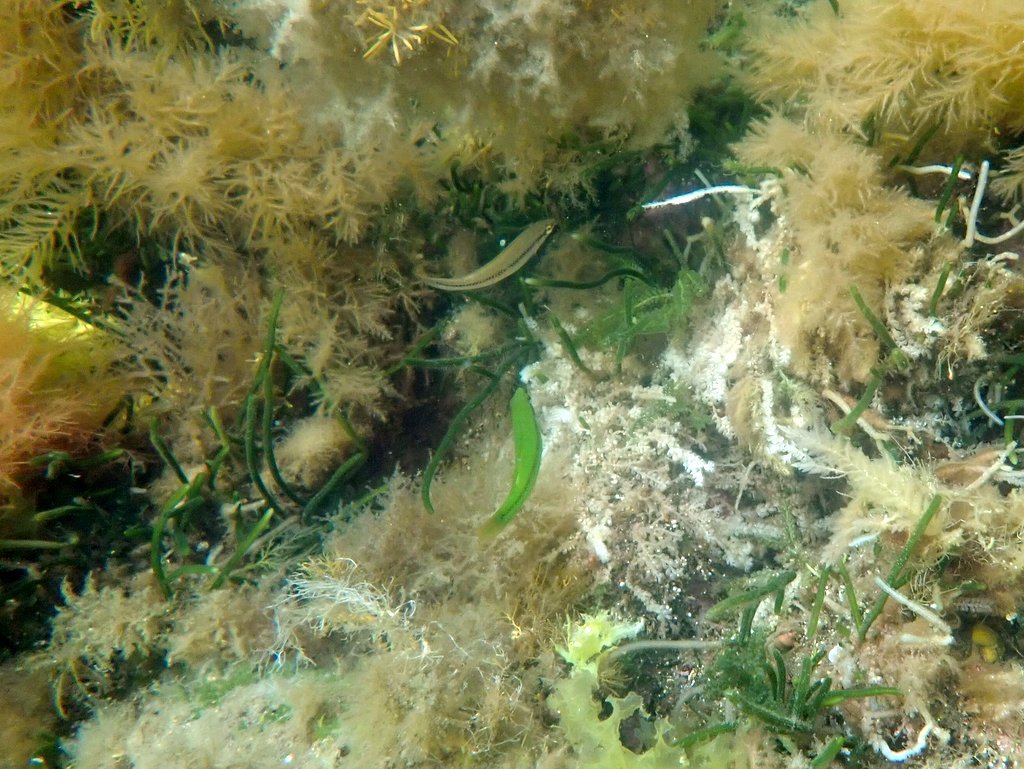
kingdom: Animalia
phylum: Chordata
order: Perciformes
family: Odacidae
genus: Neoodax
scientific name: Neoodax balteatus
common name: Ground mullet
